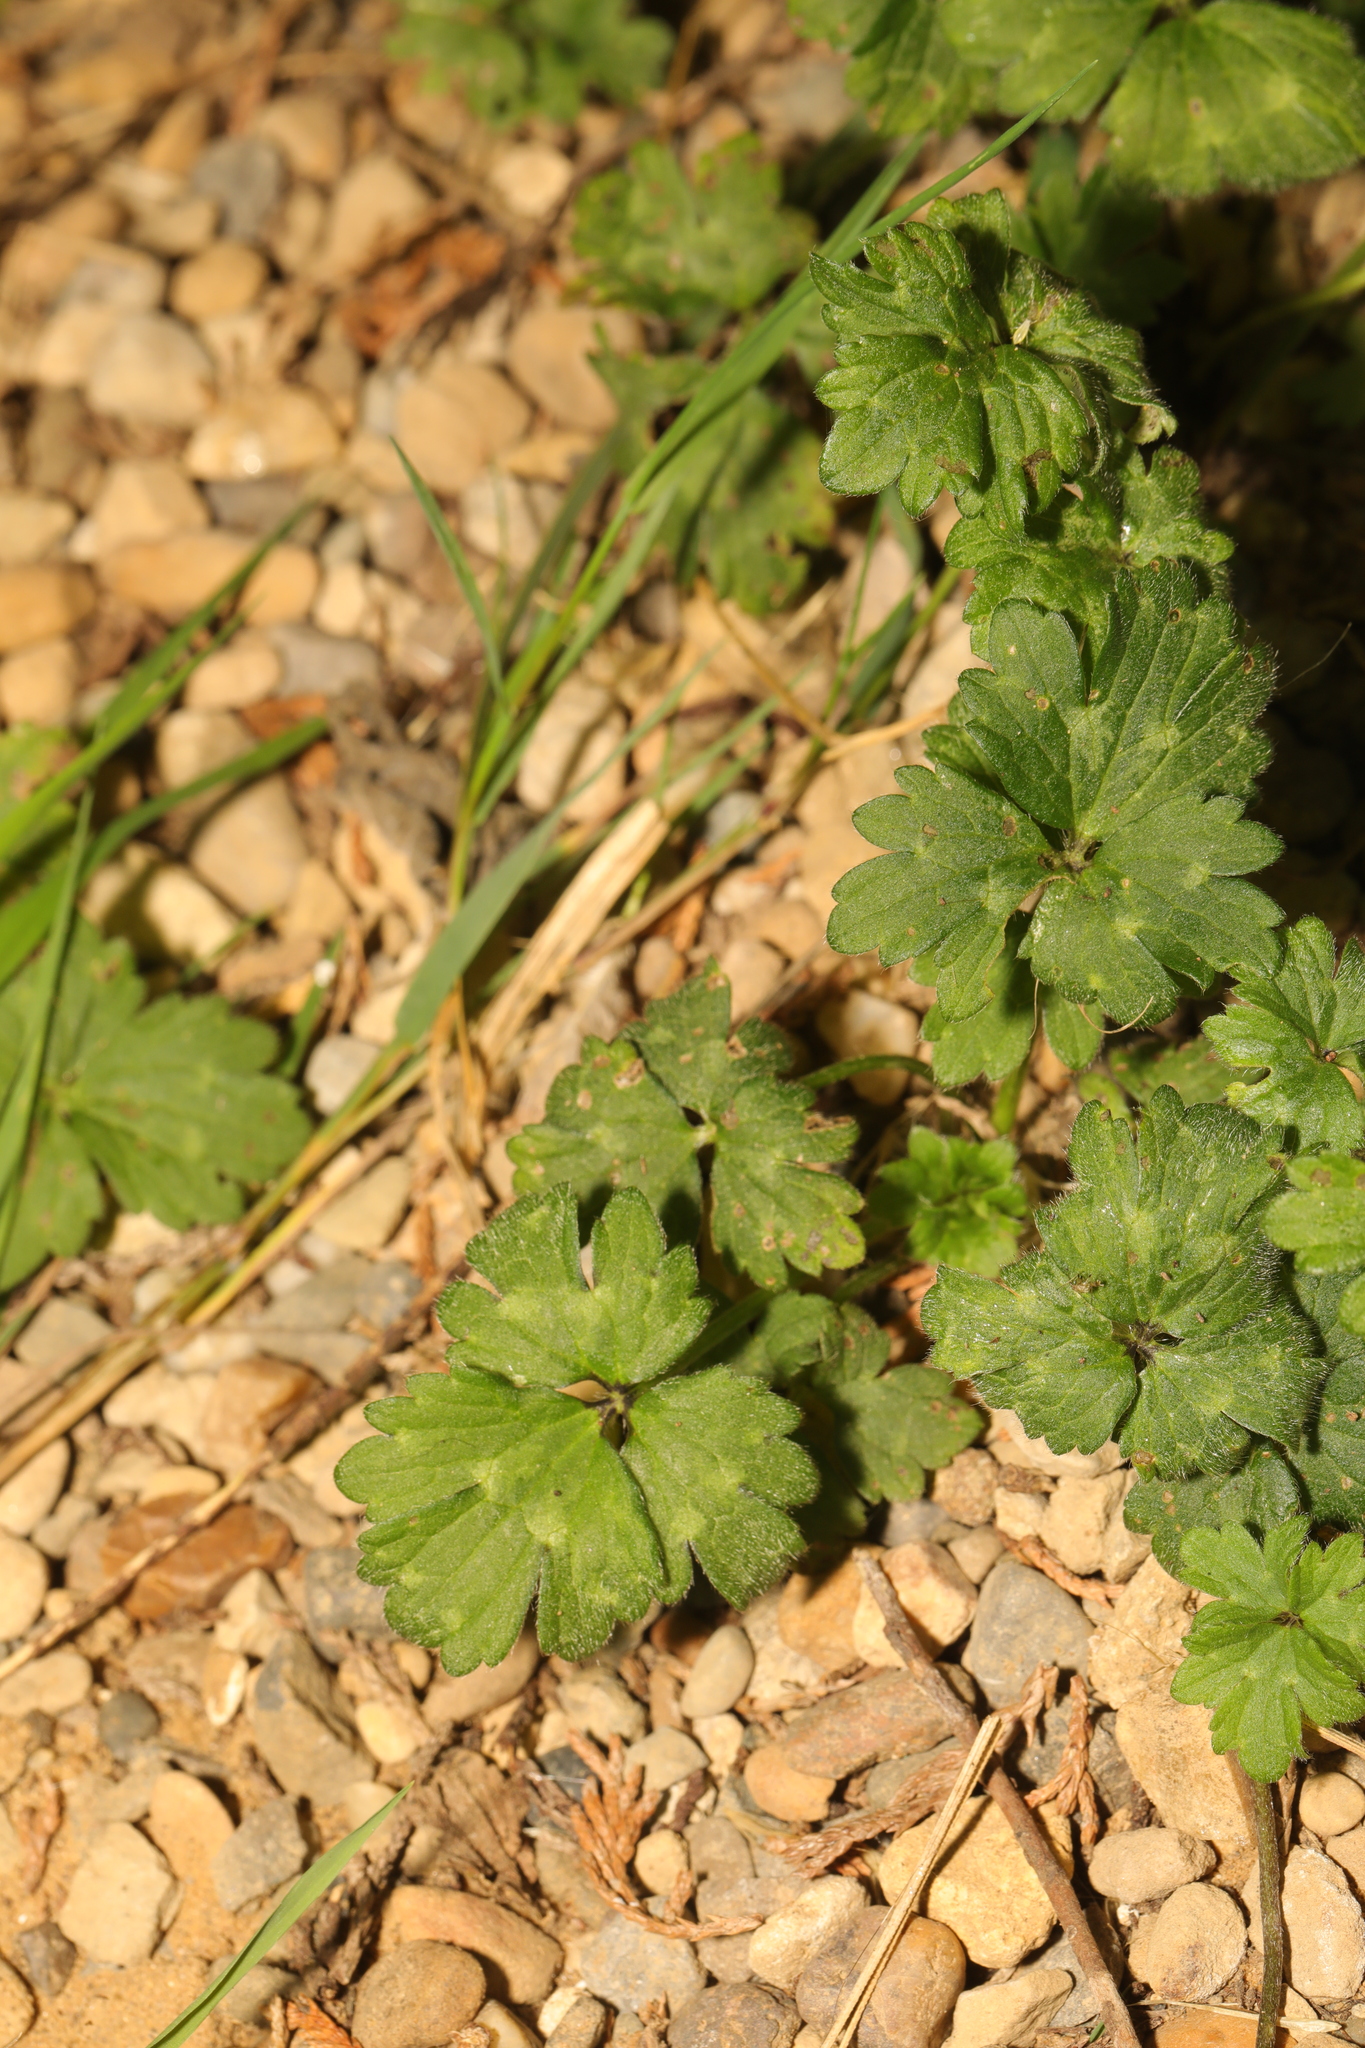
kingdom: Plantae
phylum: Tracheophyta
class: Magnoliopsida
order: Ranunculales
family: Ranunculaceae
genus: Ranunculus
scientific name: Ranunculus repens
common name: Creeping buttercup
